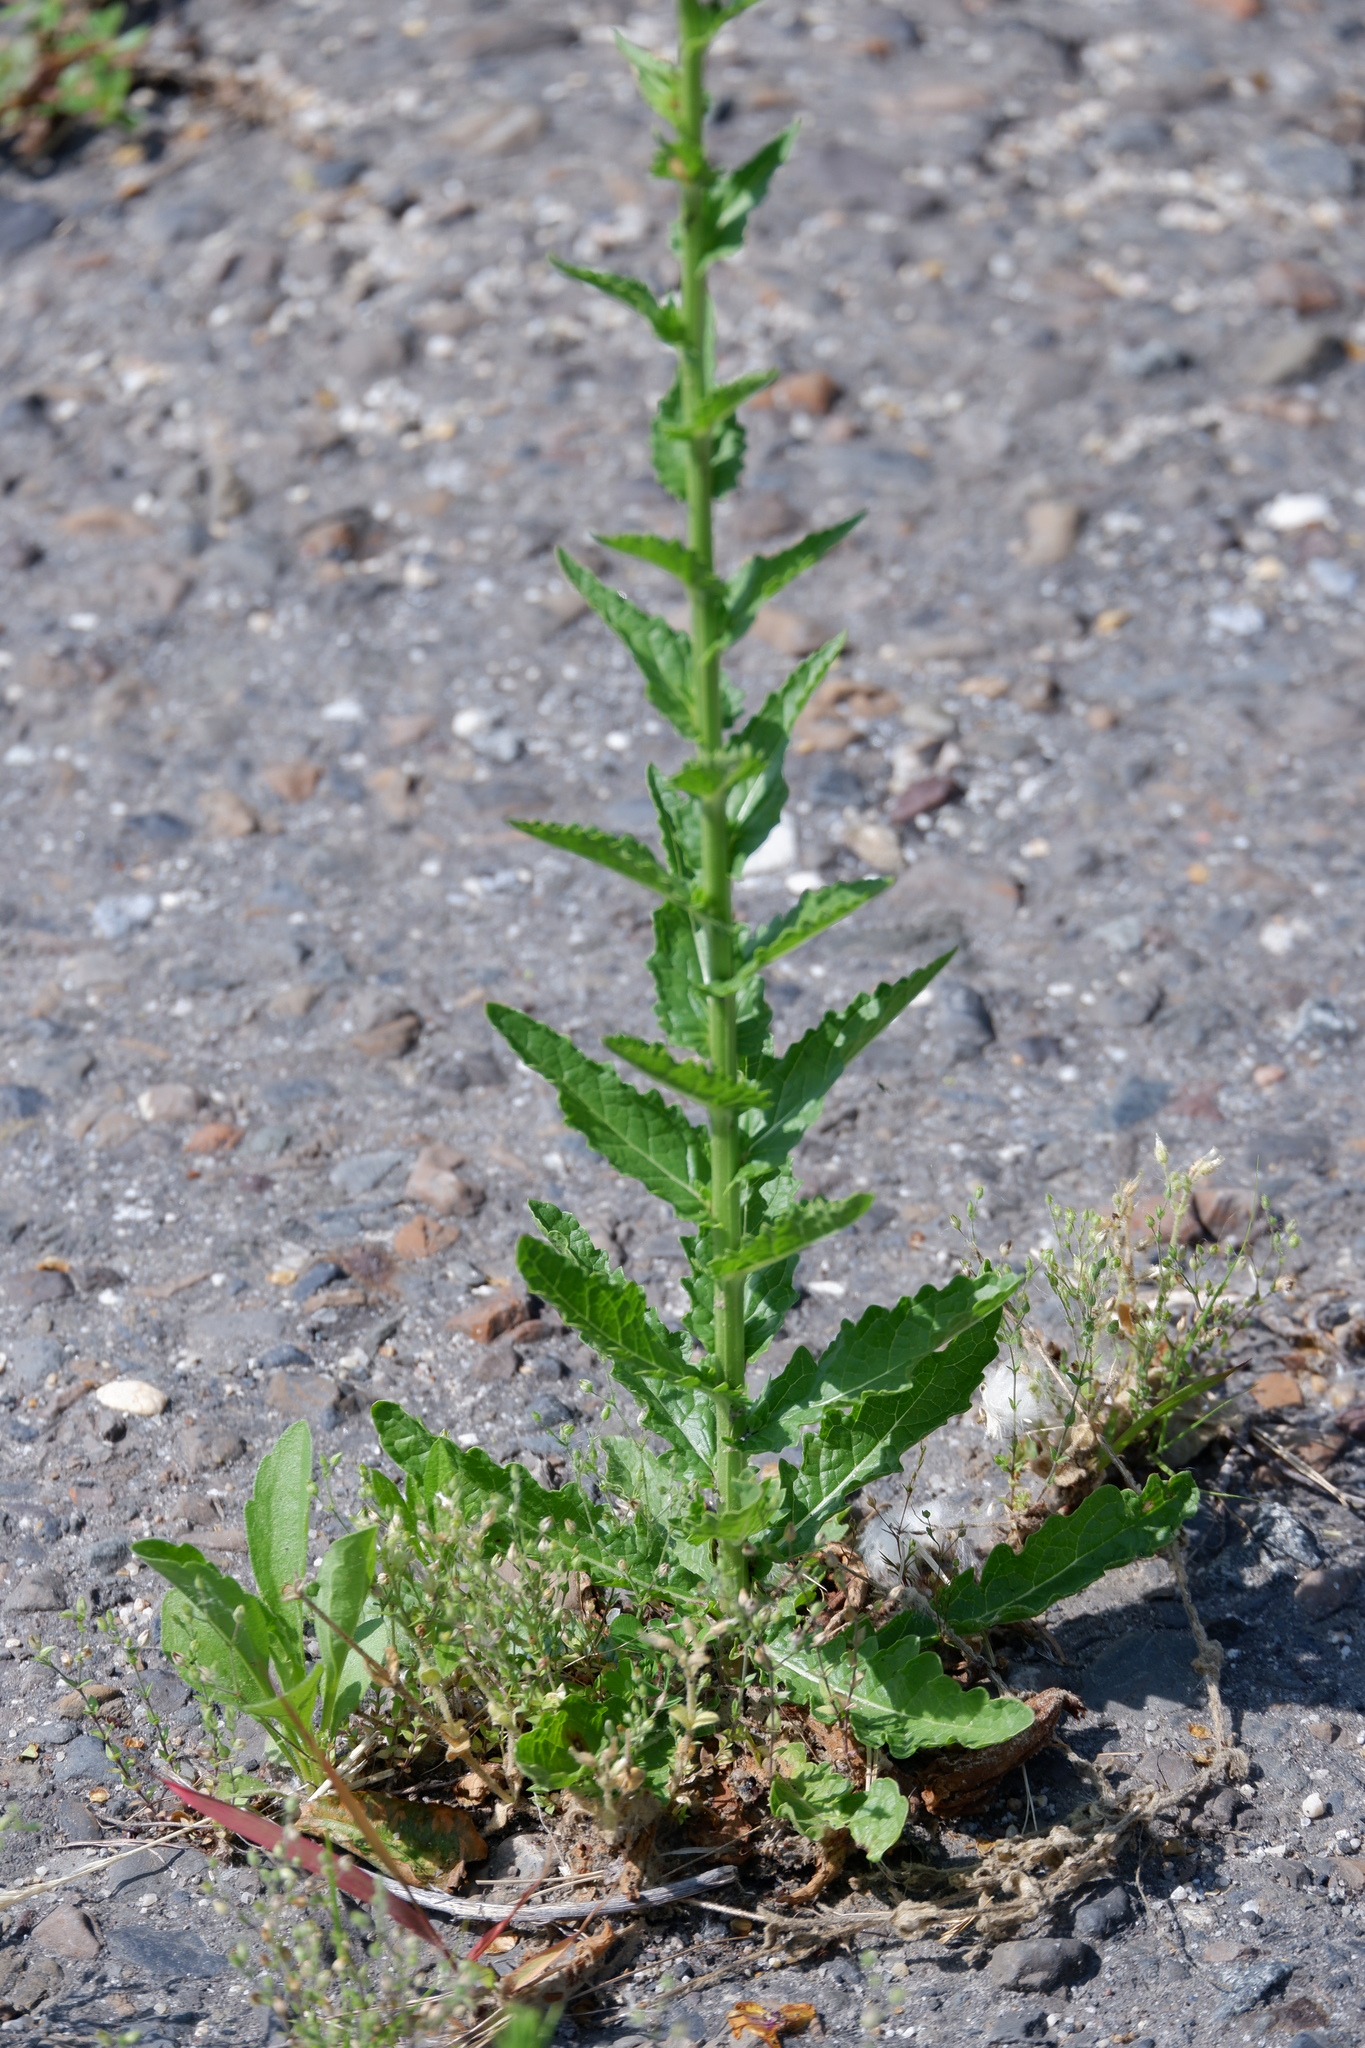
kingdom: Plantae
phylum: Tracheophyta
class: Magnoliopsida
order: Lamiales
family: Scrophulariaceae
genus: Verbascum
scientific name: Verbascum blattaria
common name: Moth mullein
